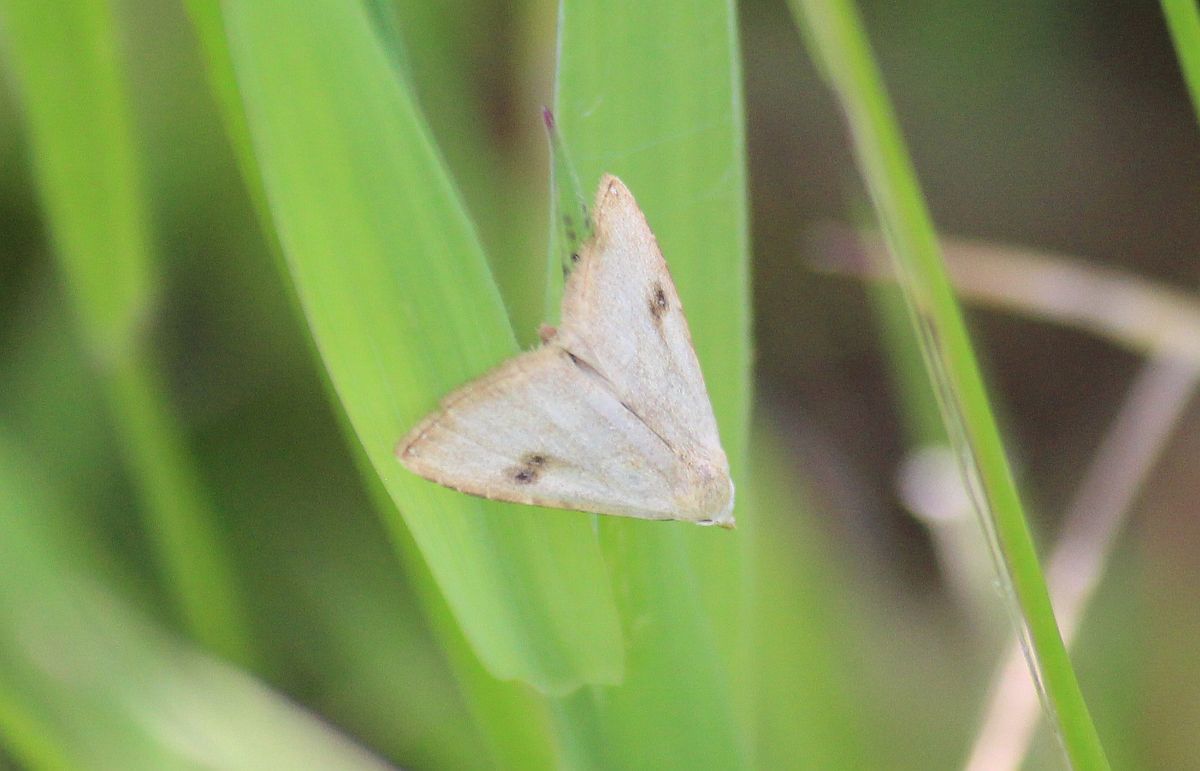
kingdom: Animalia
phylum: Arthropoda
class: Insecta
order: Lepidoptera
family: Erebidae
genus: Rivula
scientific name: Rivula sericealis
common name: Straw dot
